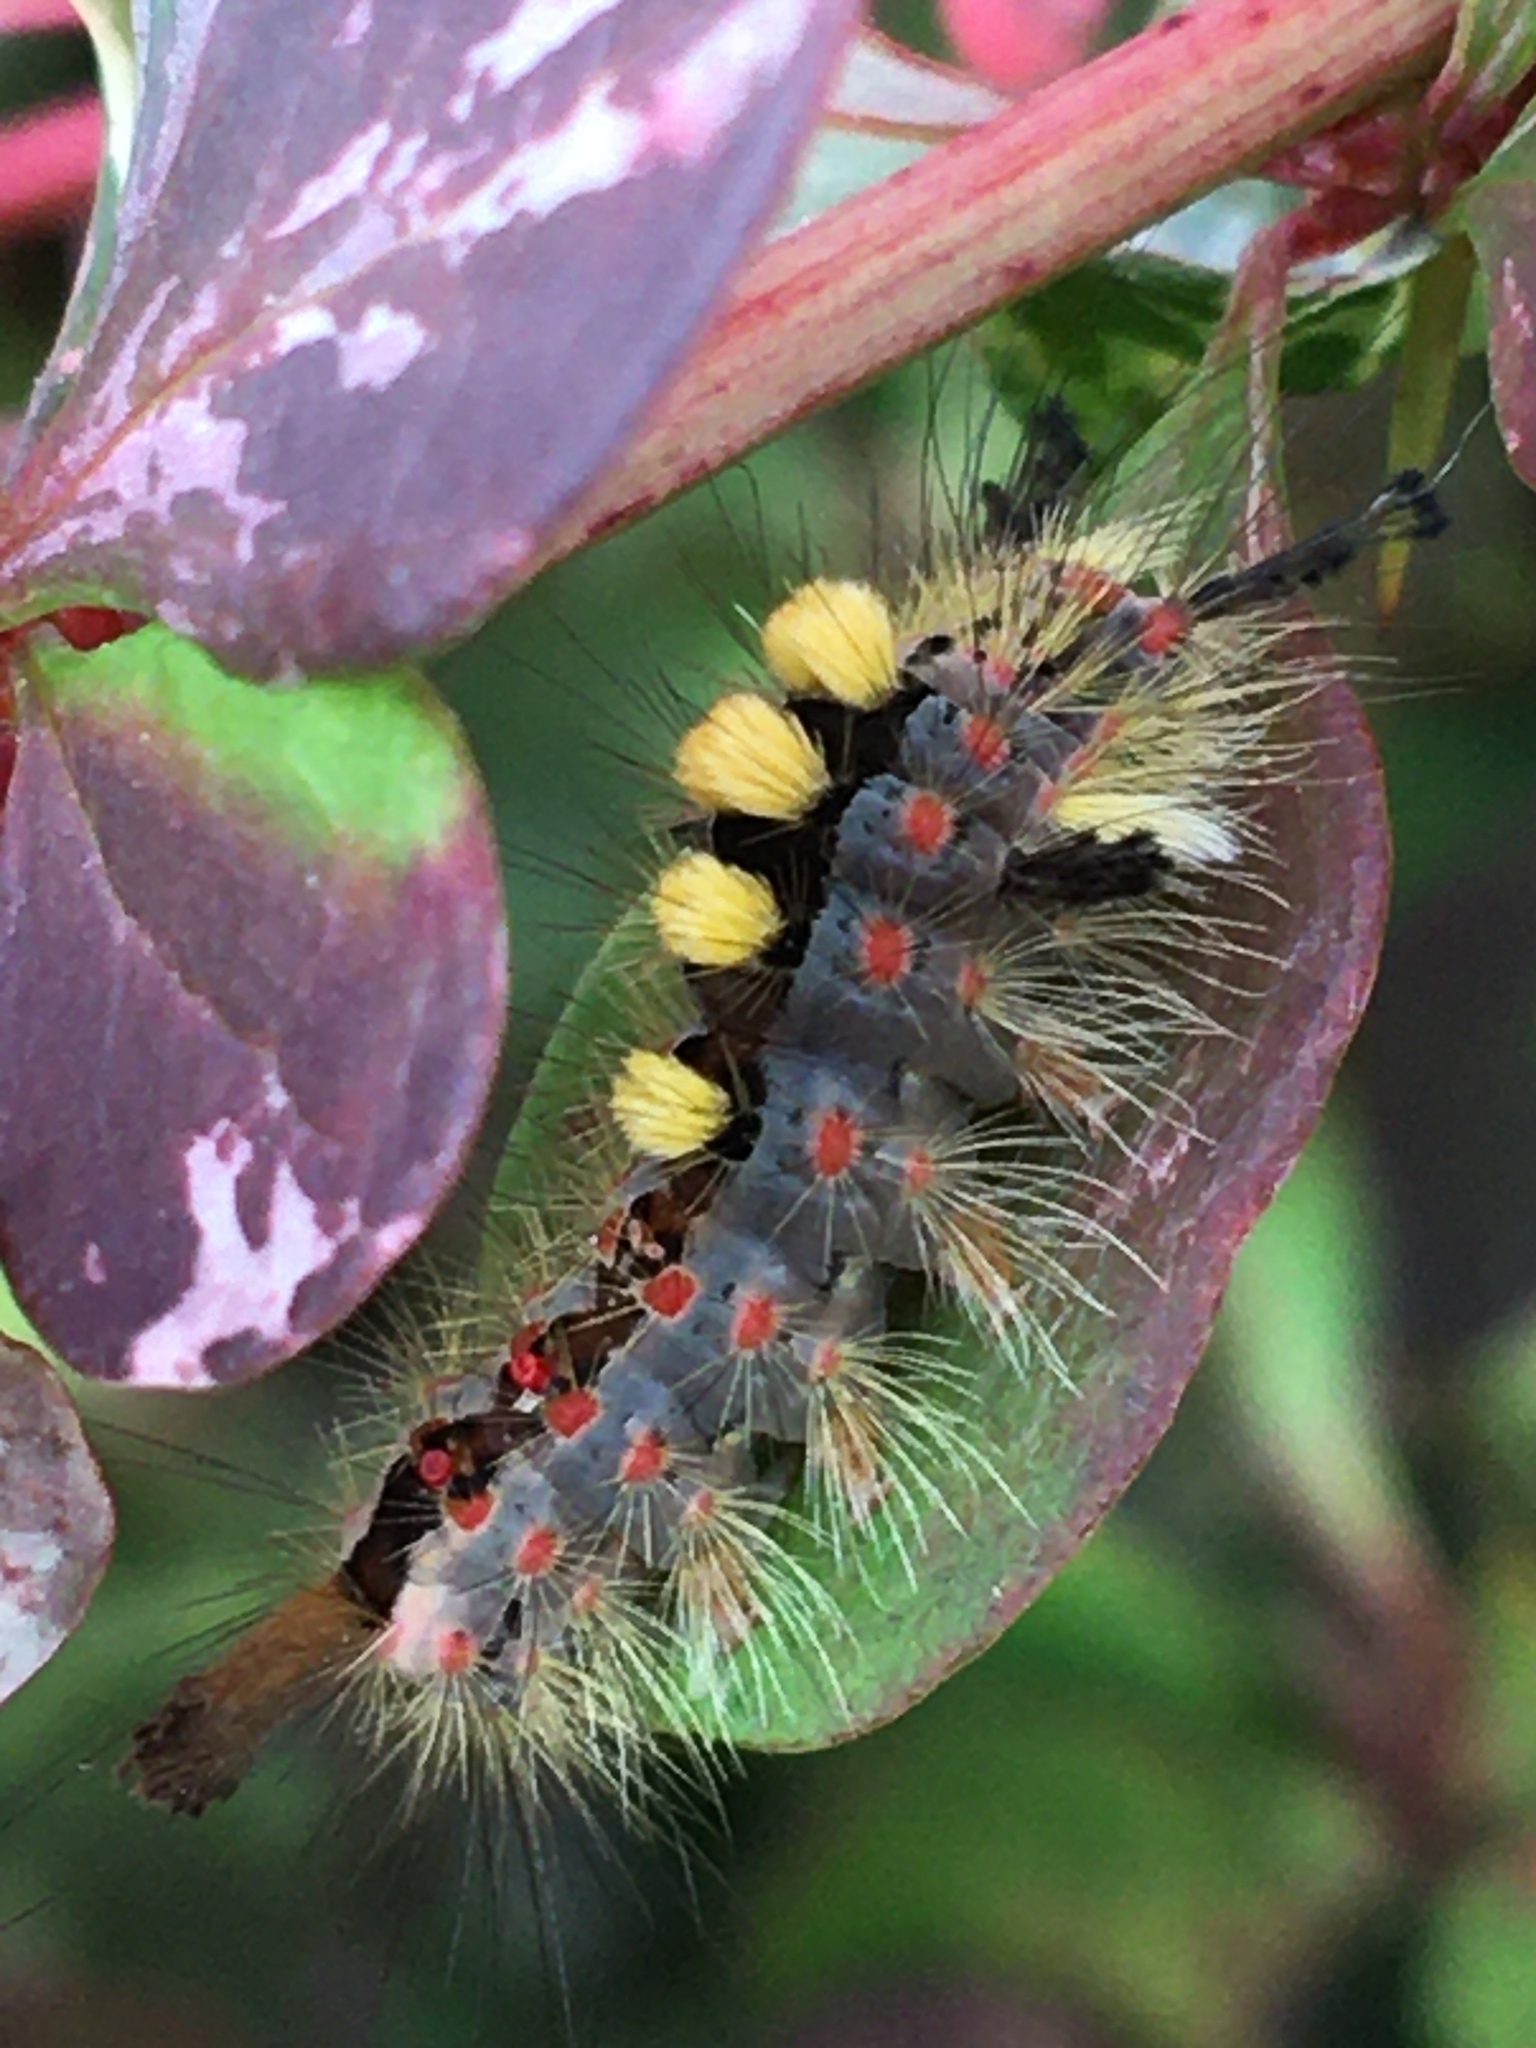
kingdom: Animalia
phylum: Arthropoda
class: Insecta
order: Lepidoptera
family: Erebidae
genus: Orgyia
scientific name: Orgyia antiqua
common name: Vapourer
